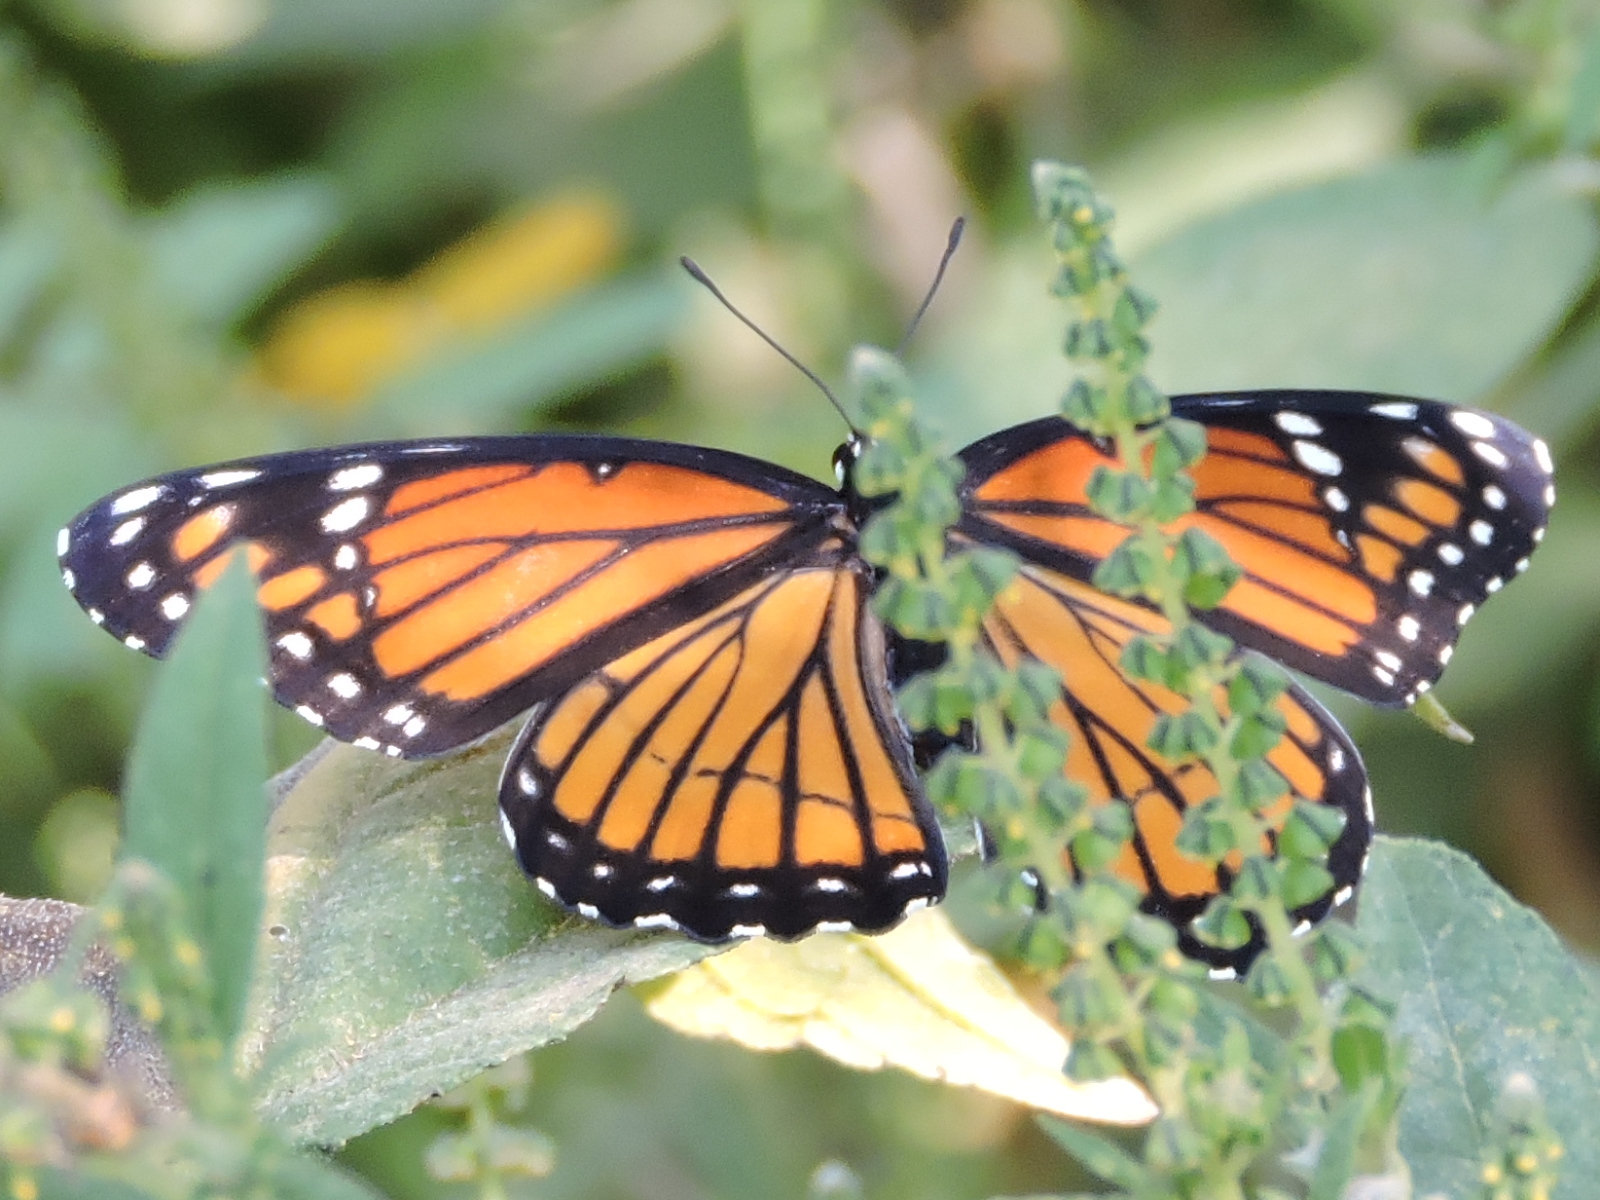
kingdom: Animalia
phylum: Arthropoda
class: Insecta
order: Lepidoptera
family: Nymphalidae
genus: Limenitis
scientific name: Limenitis archippus
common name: Viceroy
